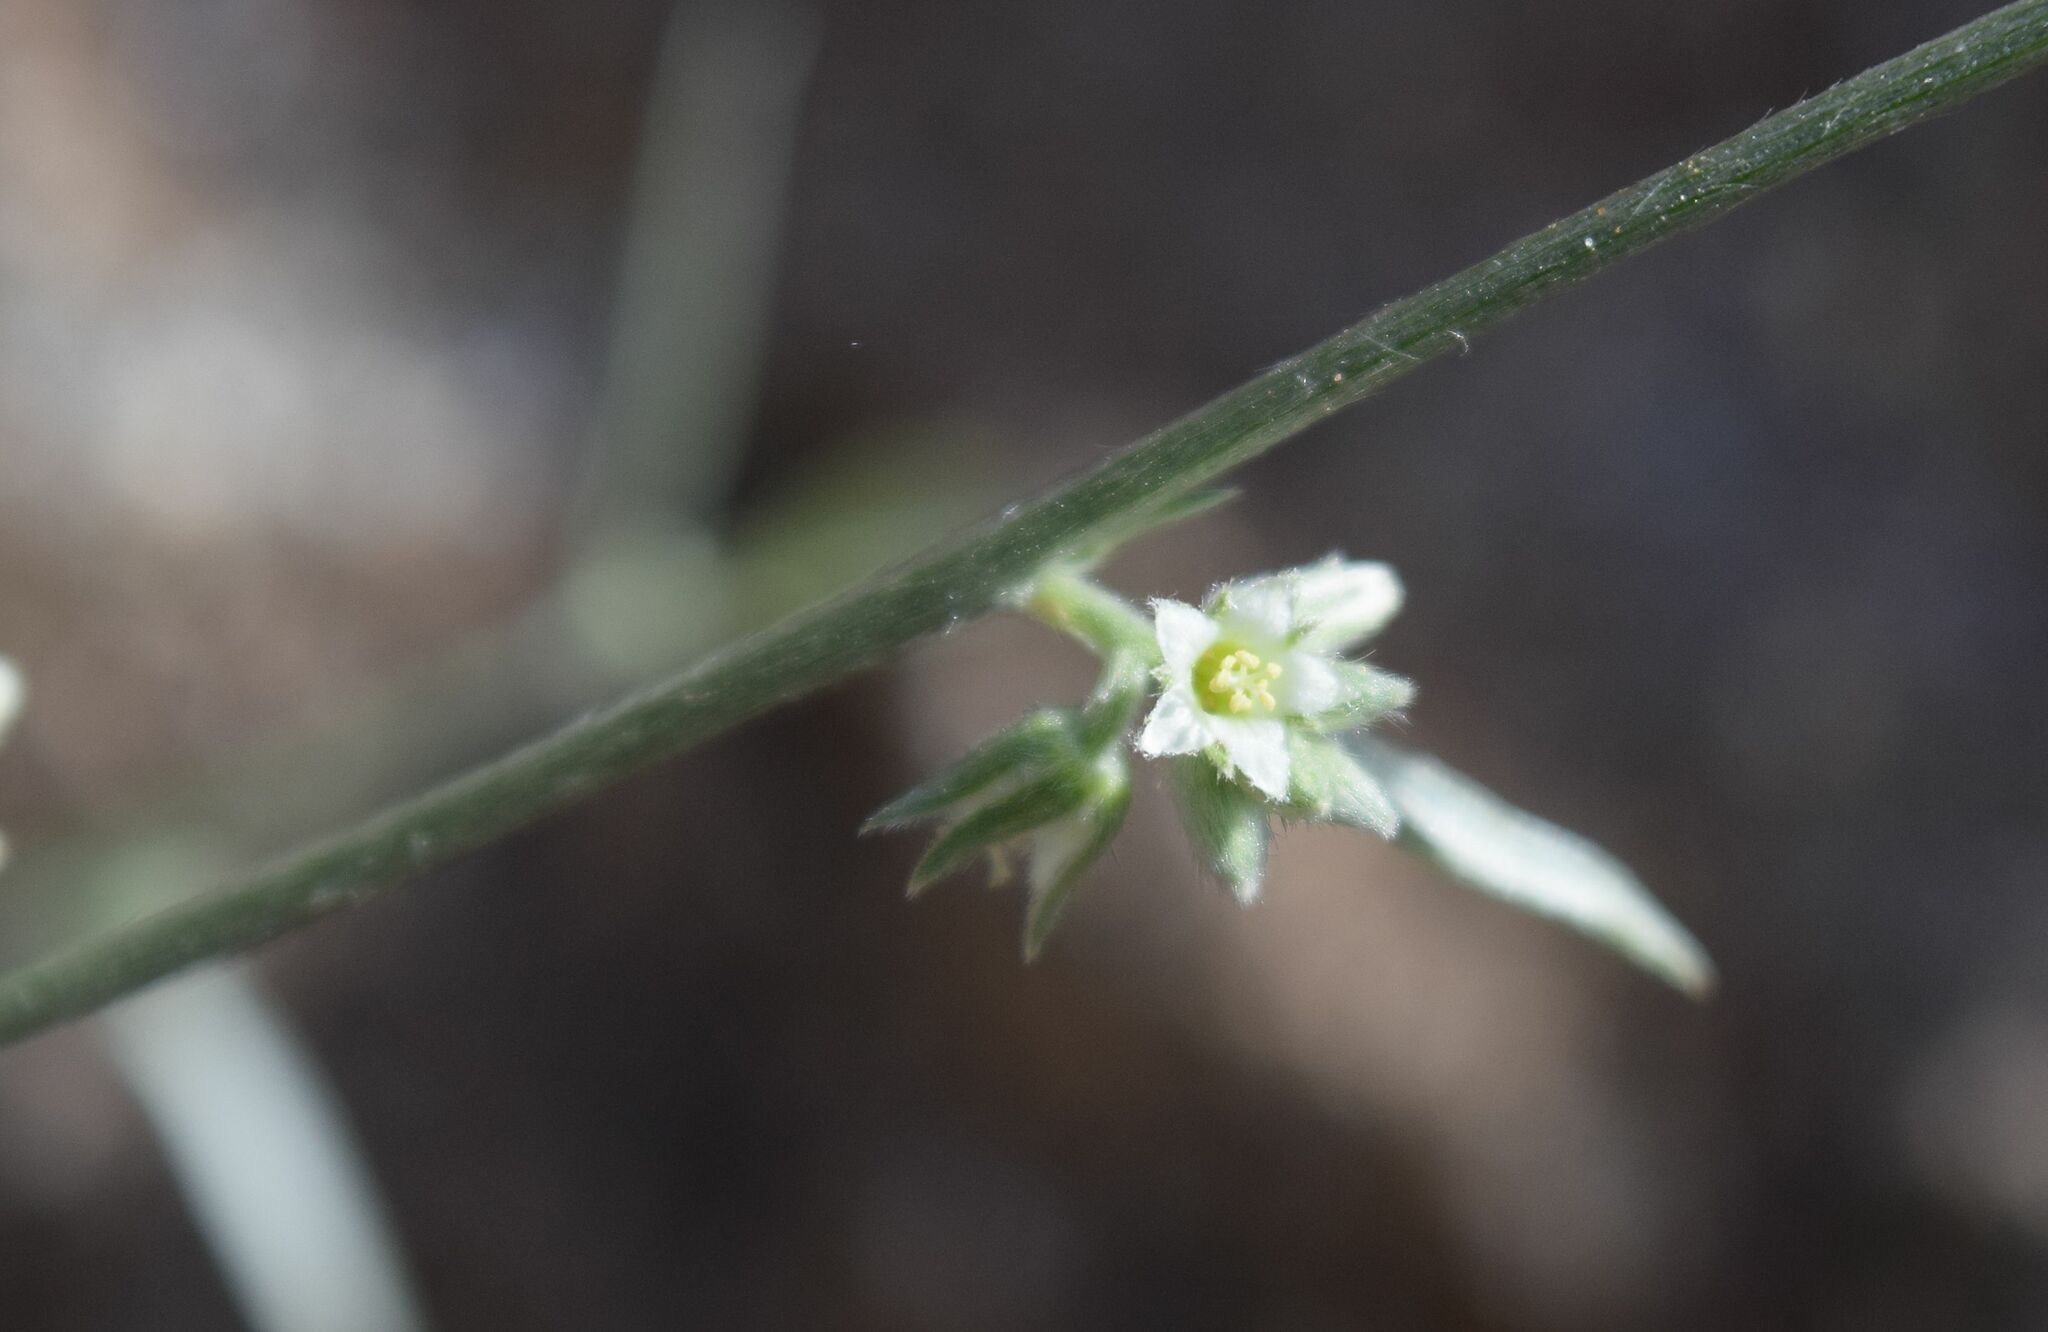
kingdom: Plantae
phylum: Tracheophyta
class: Magnoliopsida
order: Malpighiales
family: Euphorbiaceae
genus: Ditaxis
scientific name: Ditaxis lanceolata
